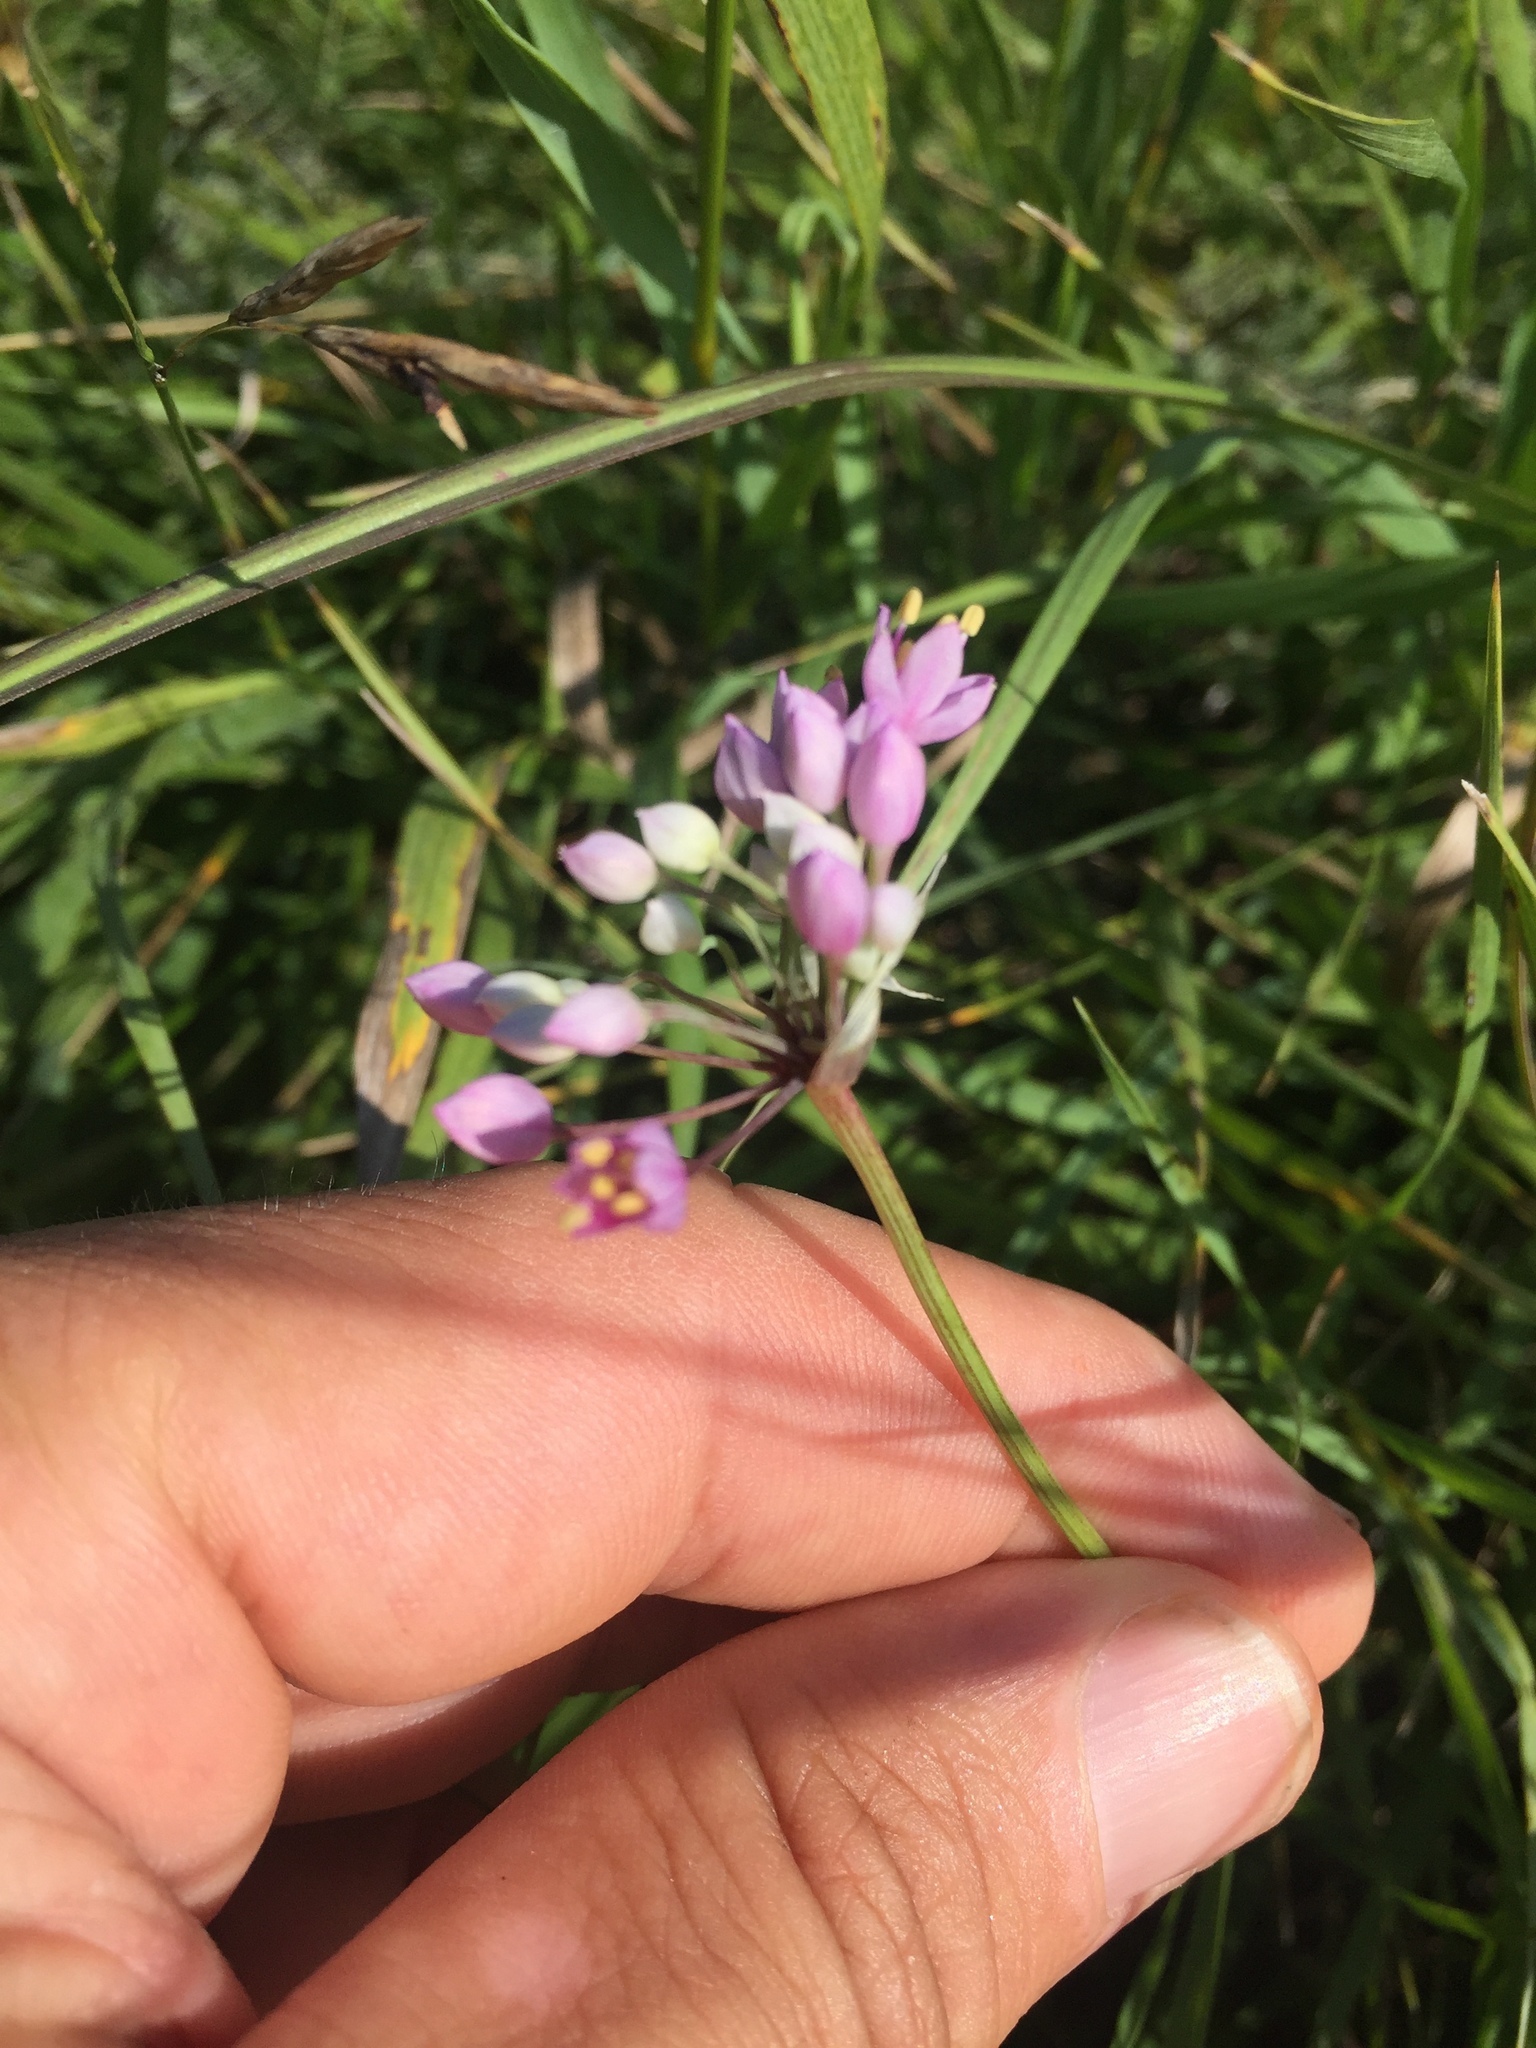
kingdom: Plantae
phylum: Tracheophyta
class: Liliopsida
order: Asparagales
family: Amaryllidaceae
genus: Allium
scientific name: Allium stellatum
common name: Autumn onion
